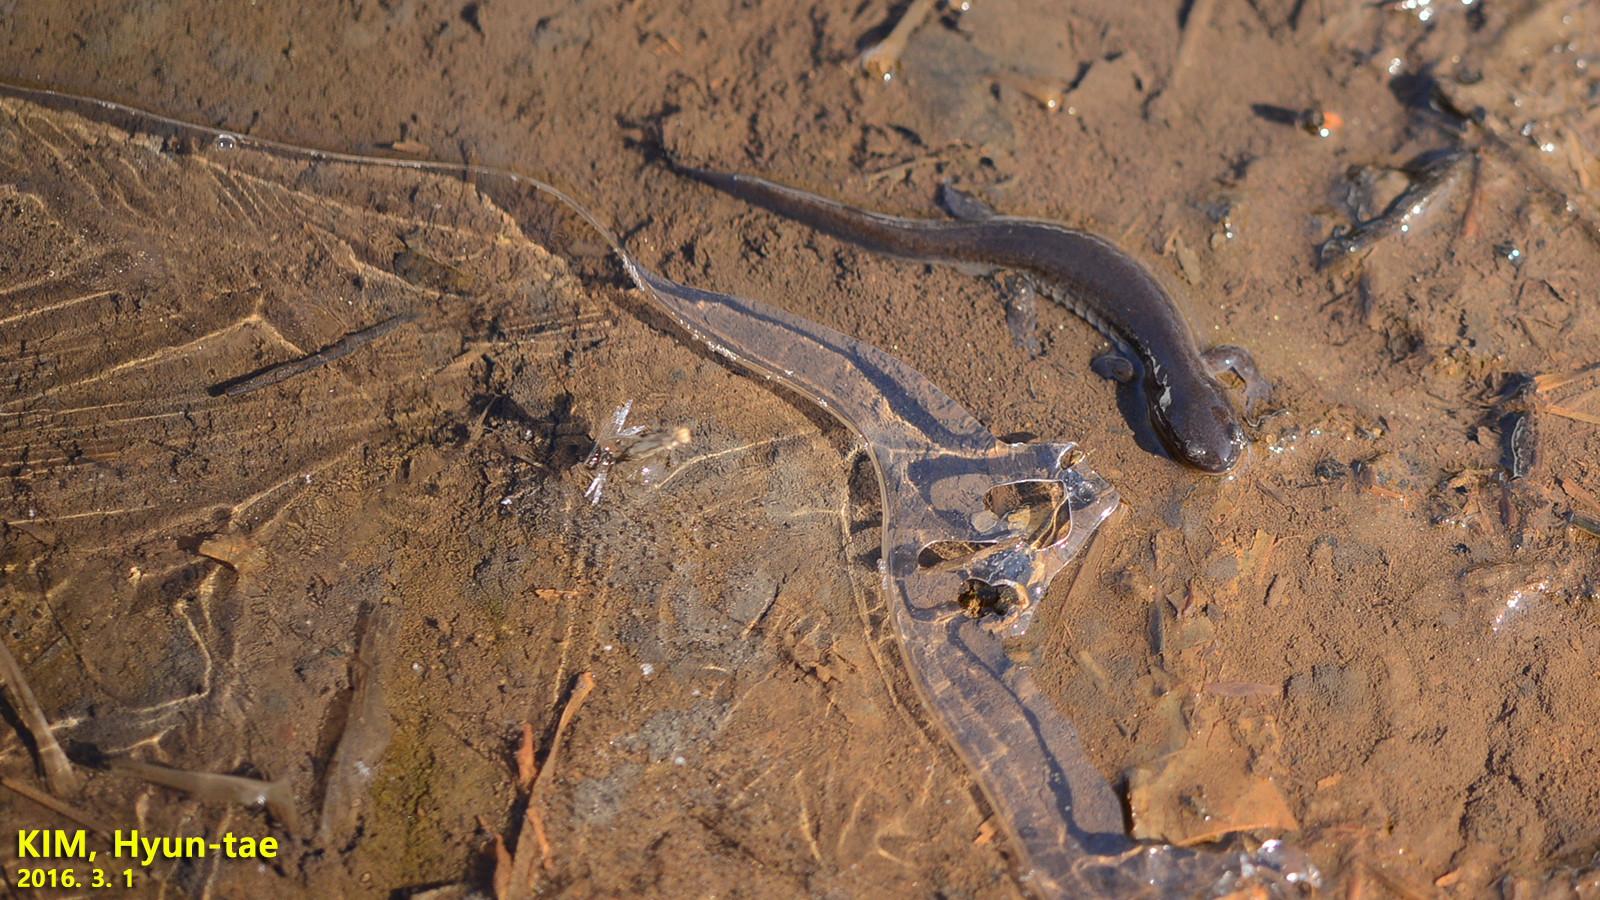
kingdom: Animalia
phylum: Chordata
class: Amphibia
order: Caudata
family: Hynobiidae
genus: Hynobius
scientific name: Hynobius leechii
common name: Gensan salamander
